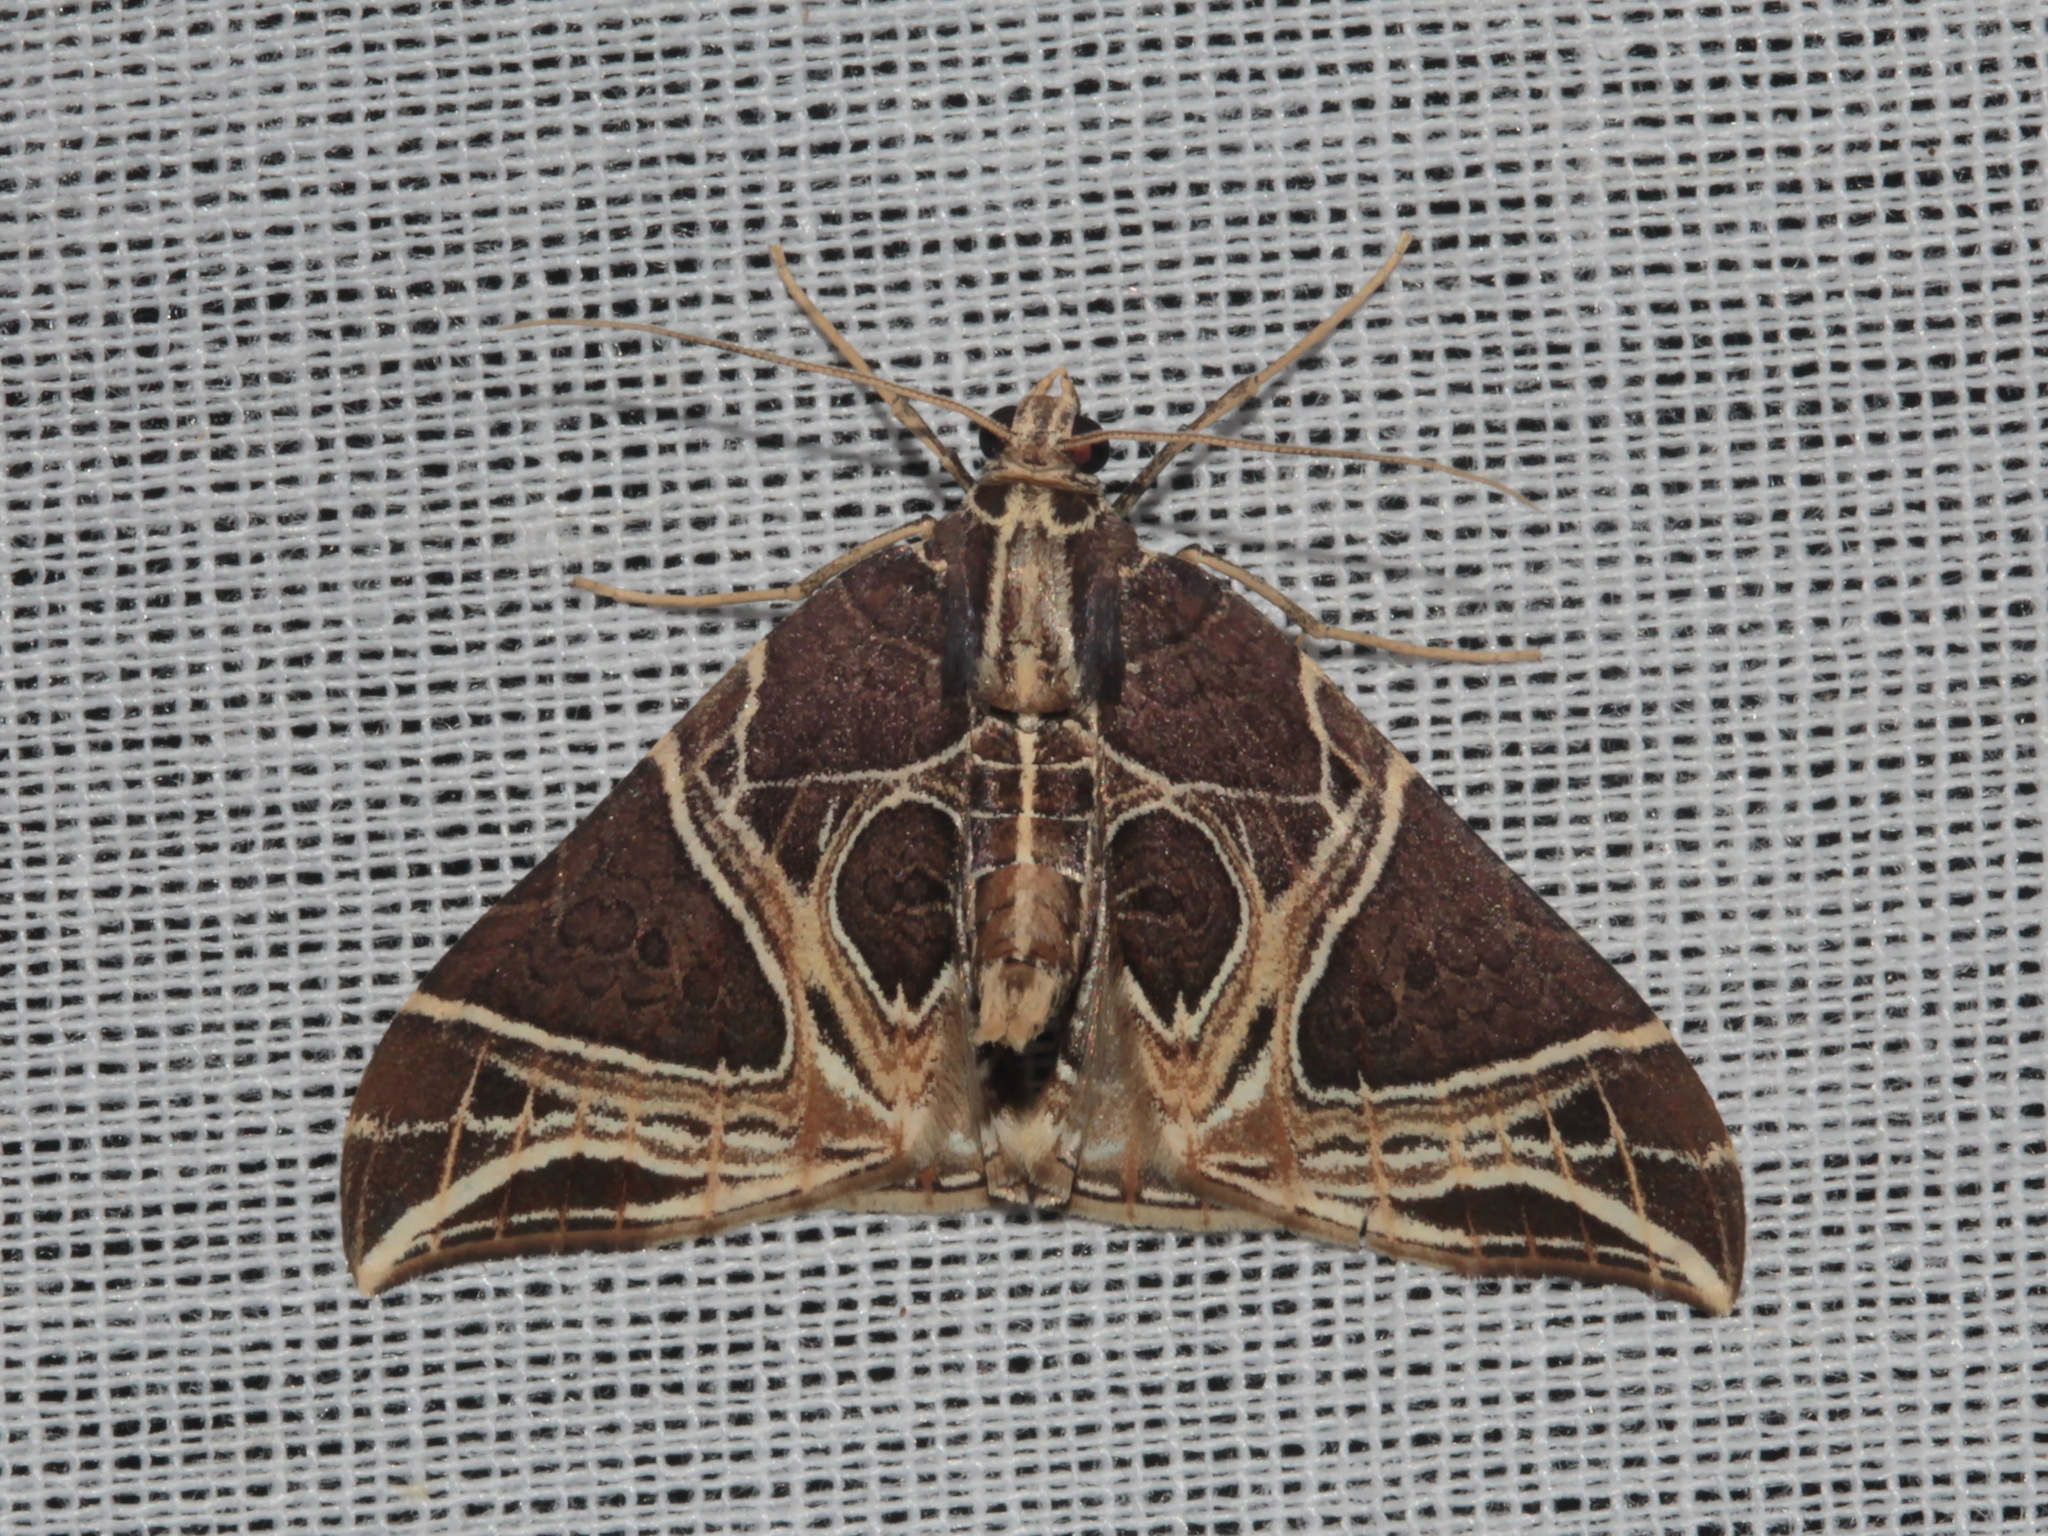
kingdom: Animalia
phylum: Arthropoda
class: Insecta
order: Lepidoptera
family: Geometridae
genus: Ecliptopera
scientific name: Ecliptopera rectilinea
